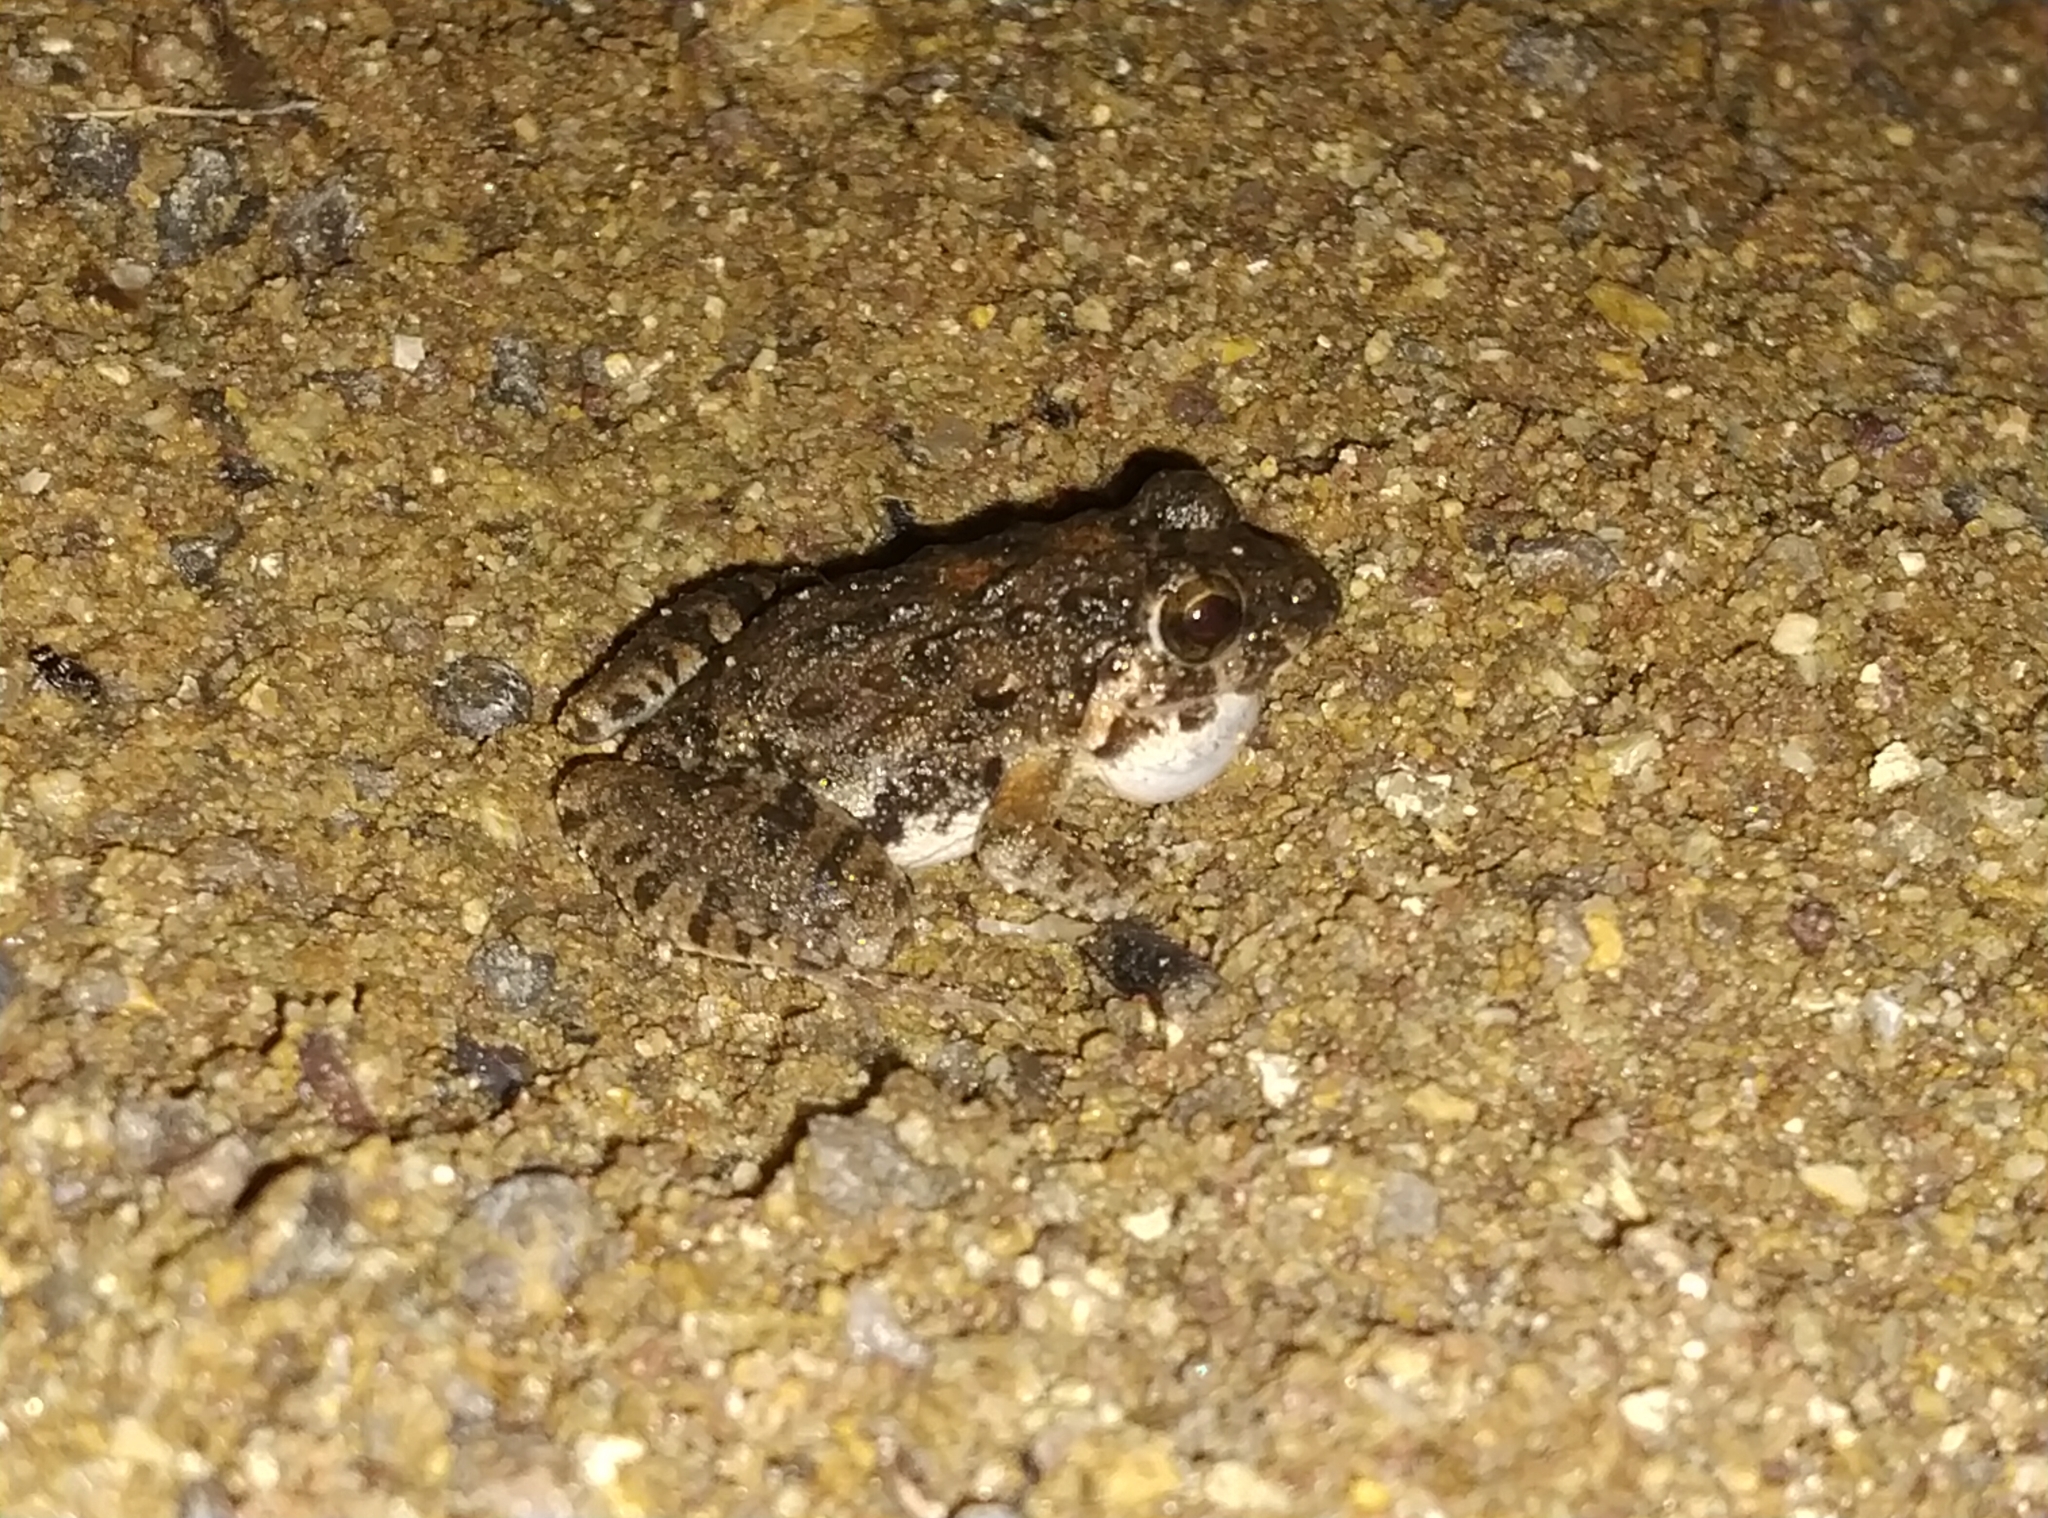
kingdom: Animalia
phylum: Chordata
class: Amphibia
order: Anura
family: Dicroglossidae
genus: Minervarya
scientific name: Minervarya agricola
